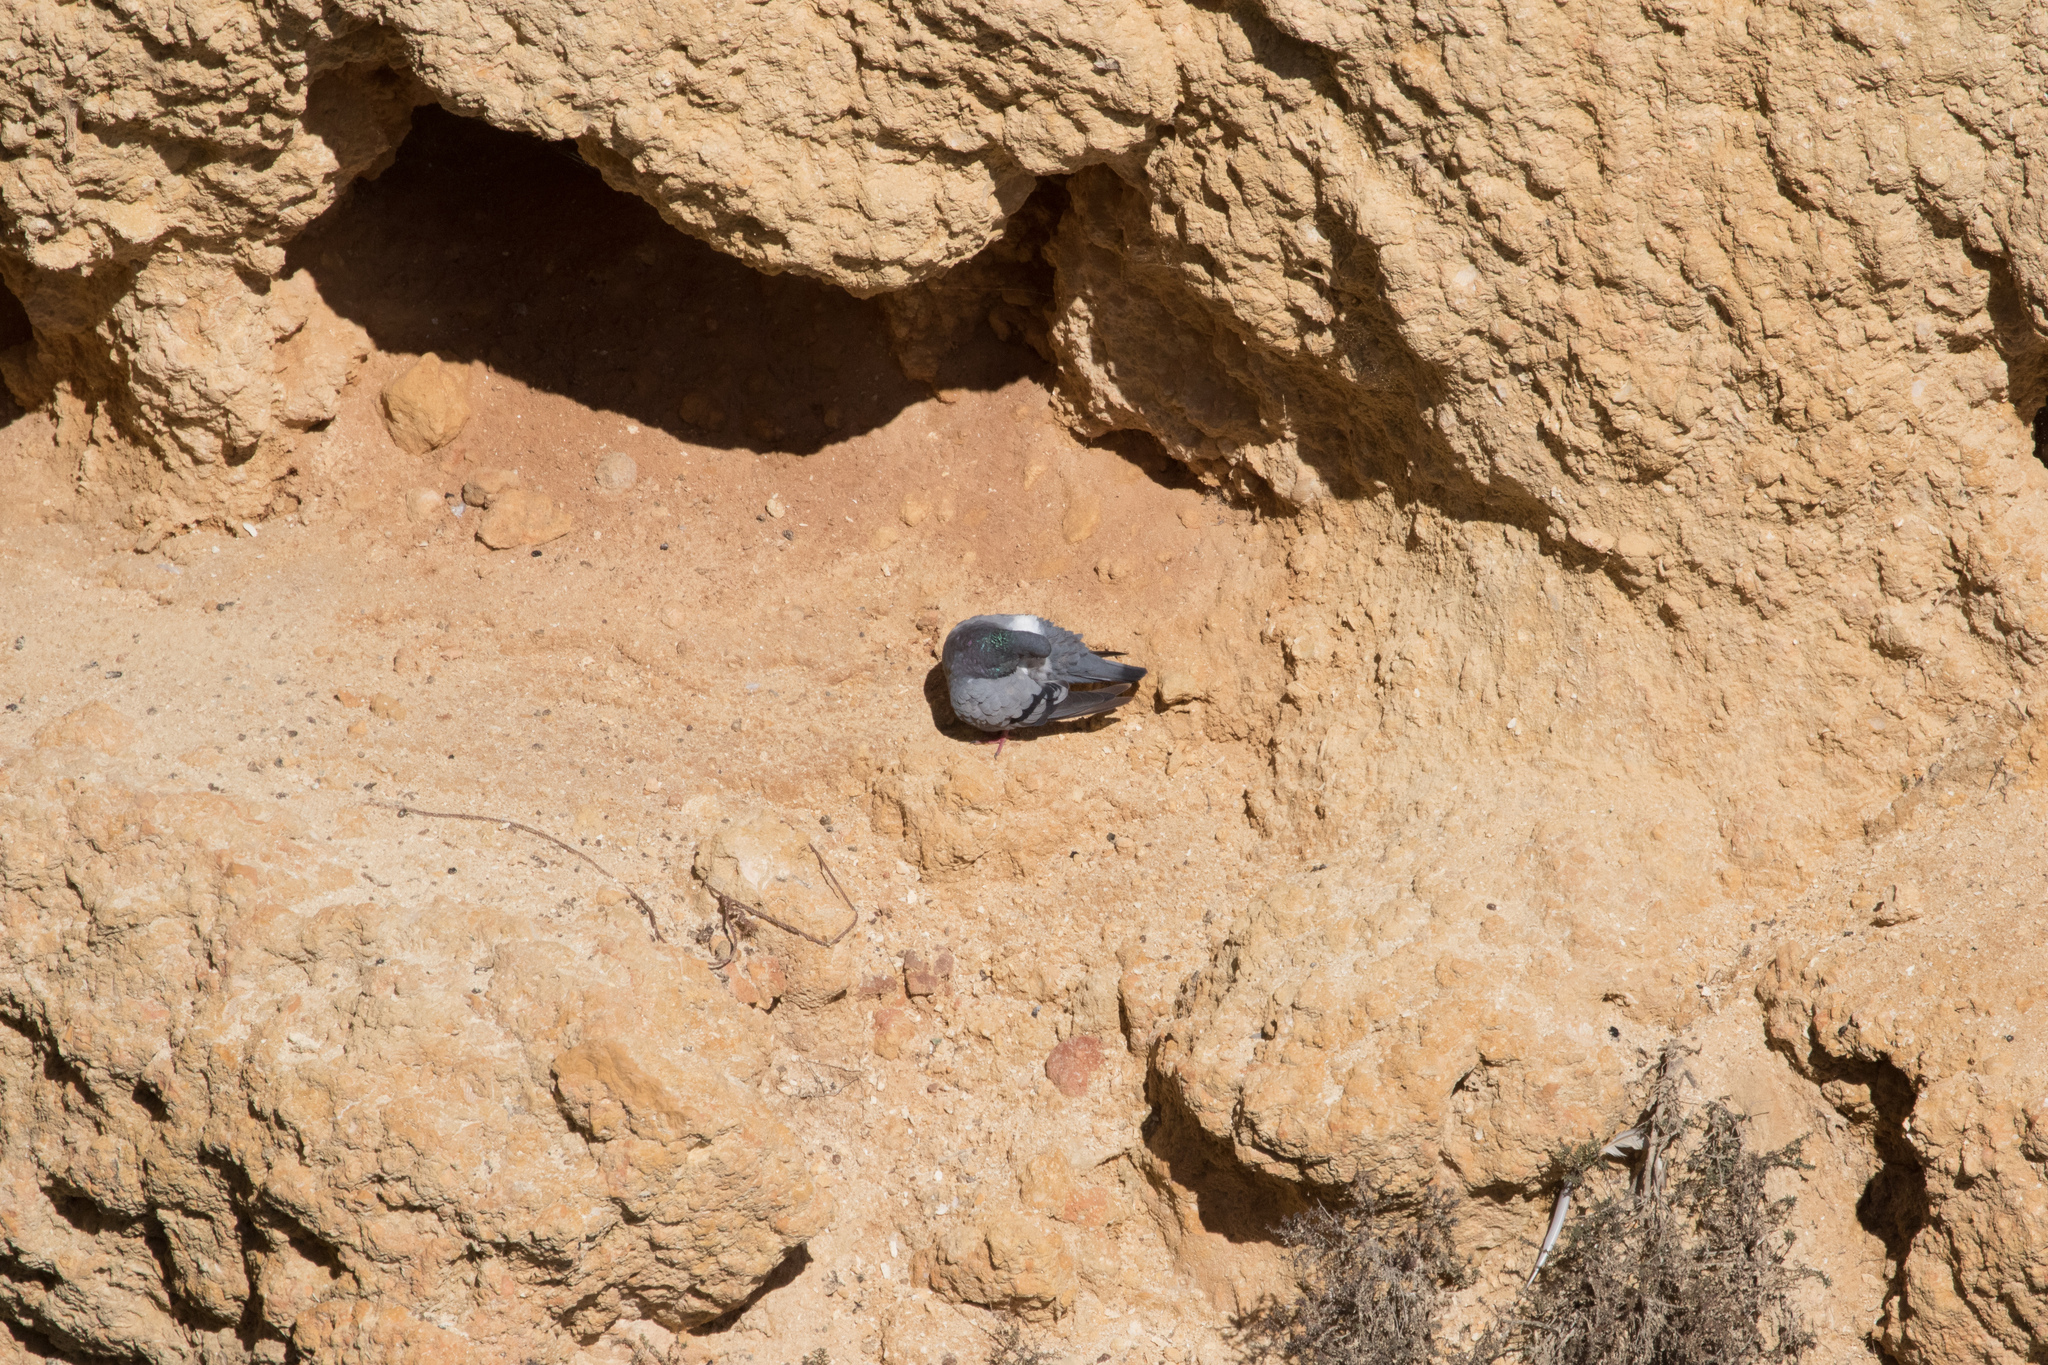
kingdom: Animalia
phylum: Chordata
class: Aves
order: Columbiformes
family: Columbidae
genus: Columba
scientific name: Columba livia
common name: Rock pigeon
